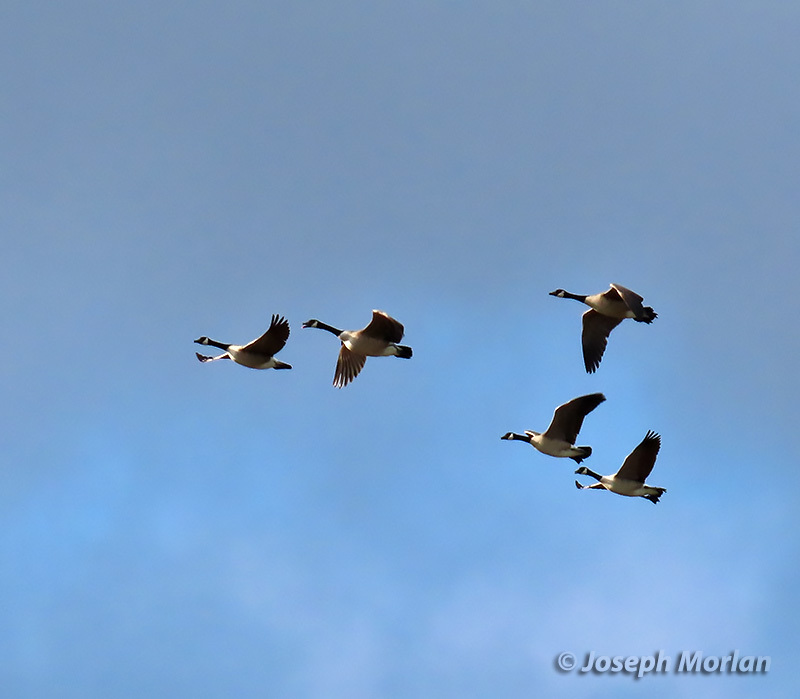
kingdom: Animalia
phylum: Chordata
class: Aves
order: Anseriformes
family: Anatidae
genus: Branta
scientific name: Branta canadensis
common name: Canada goose
